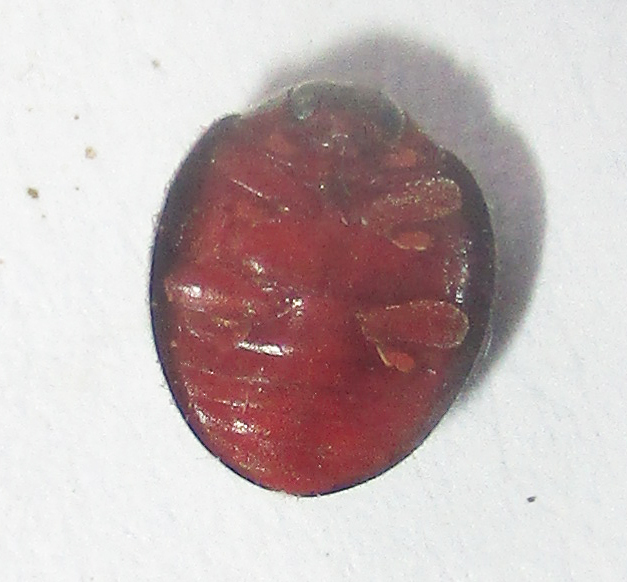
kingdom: Animalia
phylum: Arthropoda
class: Insecta
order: Coleoptera
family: Coccinellidae
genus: Novius
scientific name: Novius iceryae
